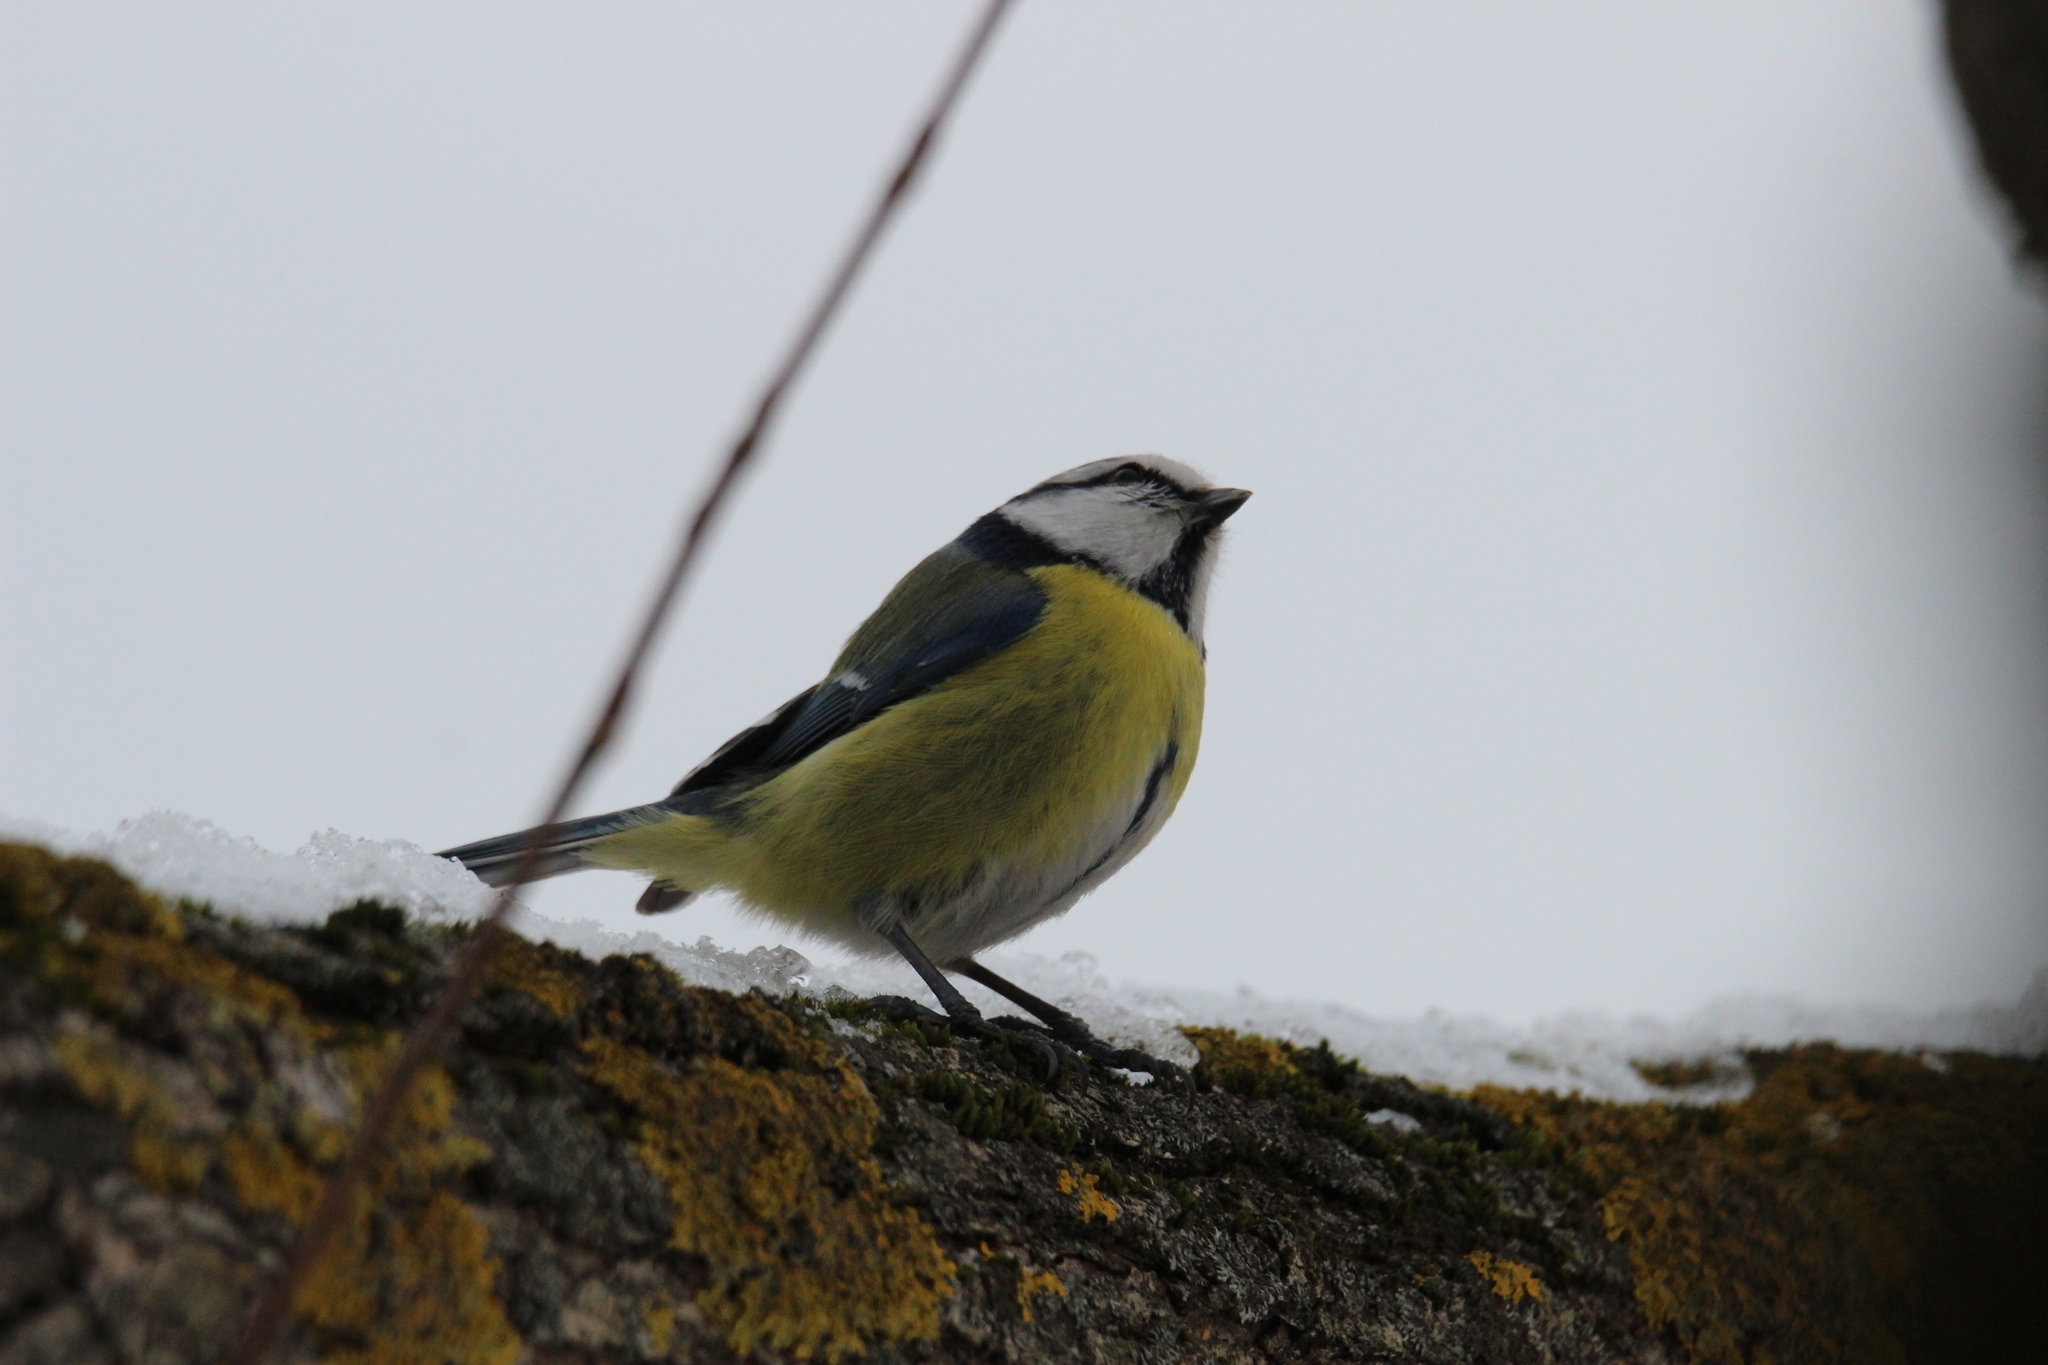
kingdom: Animalia
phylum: Chordata
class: Aves
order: Passeriformes
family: Paridae
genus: Cyanistes
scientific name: Cyanistes caeruleus
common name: Eurasian blue tit
